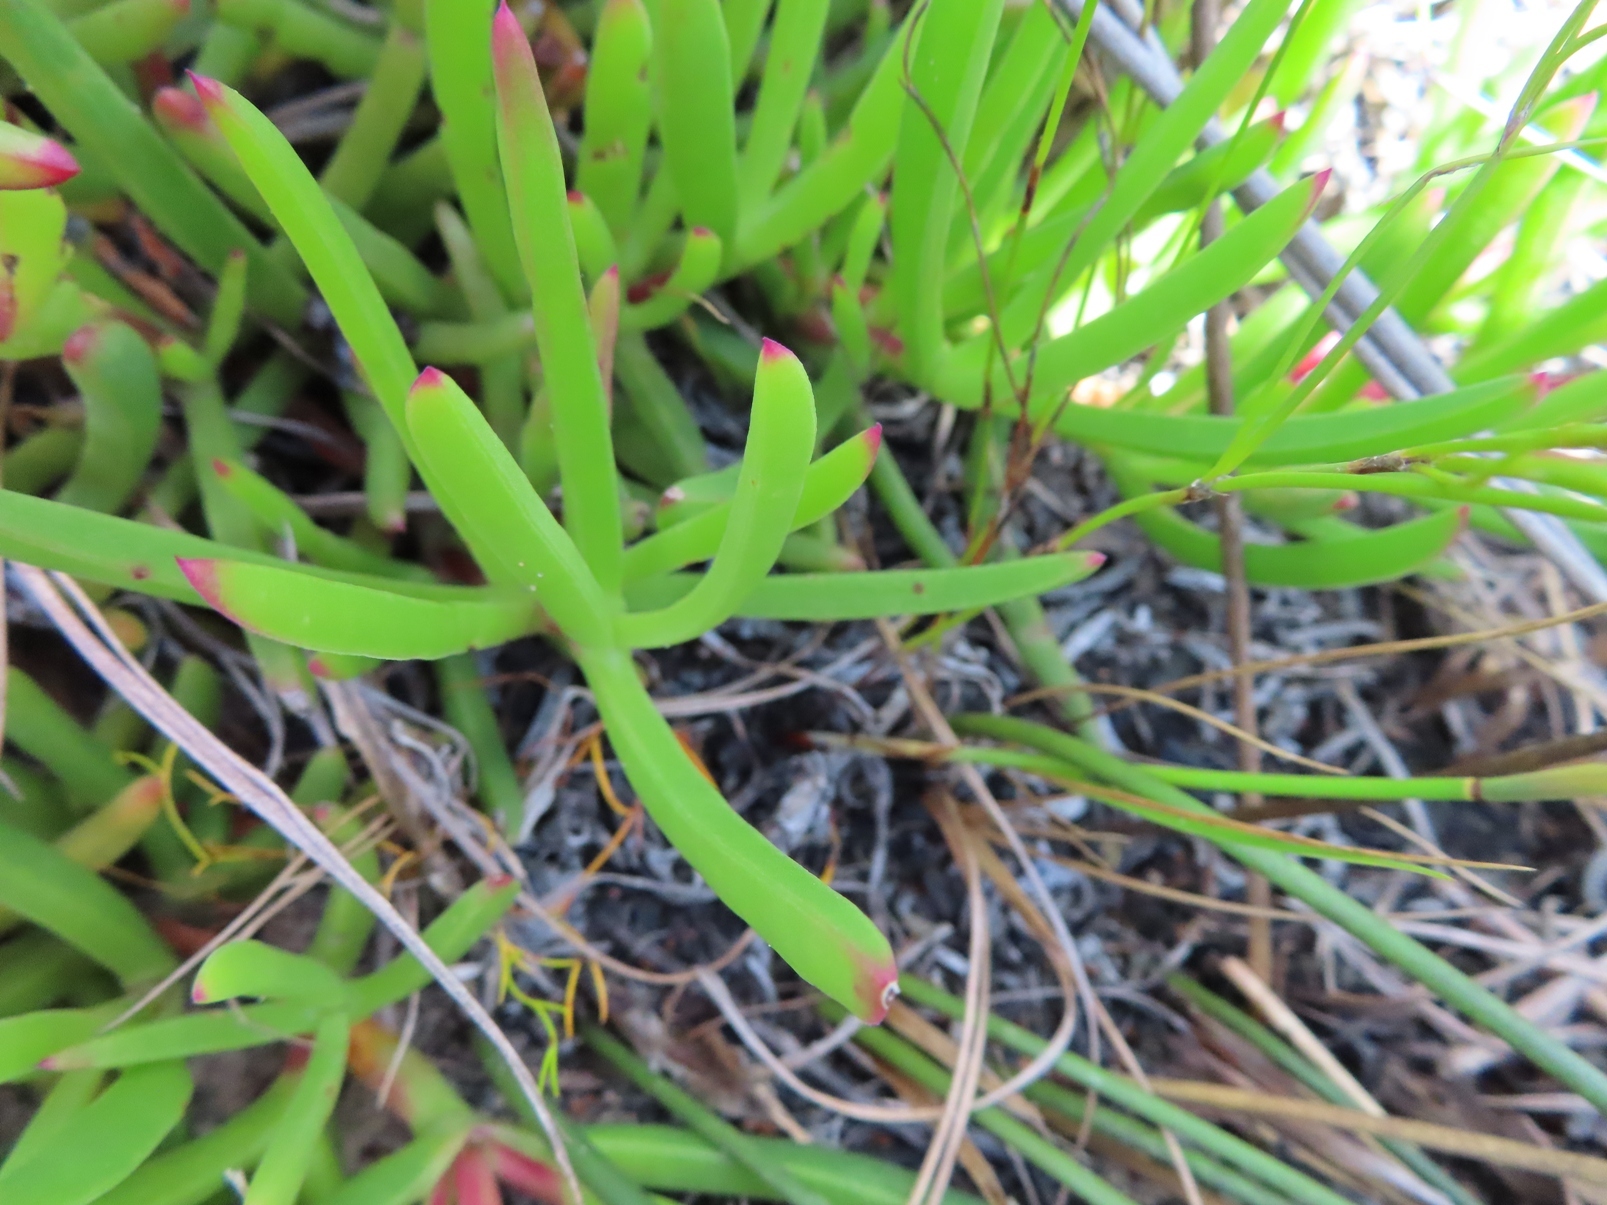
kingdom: Plantae
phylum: Tracheophyta
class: Magnoliopsida
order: Caryophyllales
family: Aizoaceae
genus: Carpobrotus
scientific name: Carpobrotus muirii
